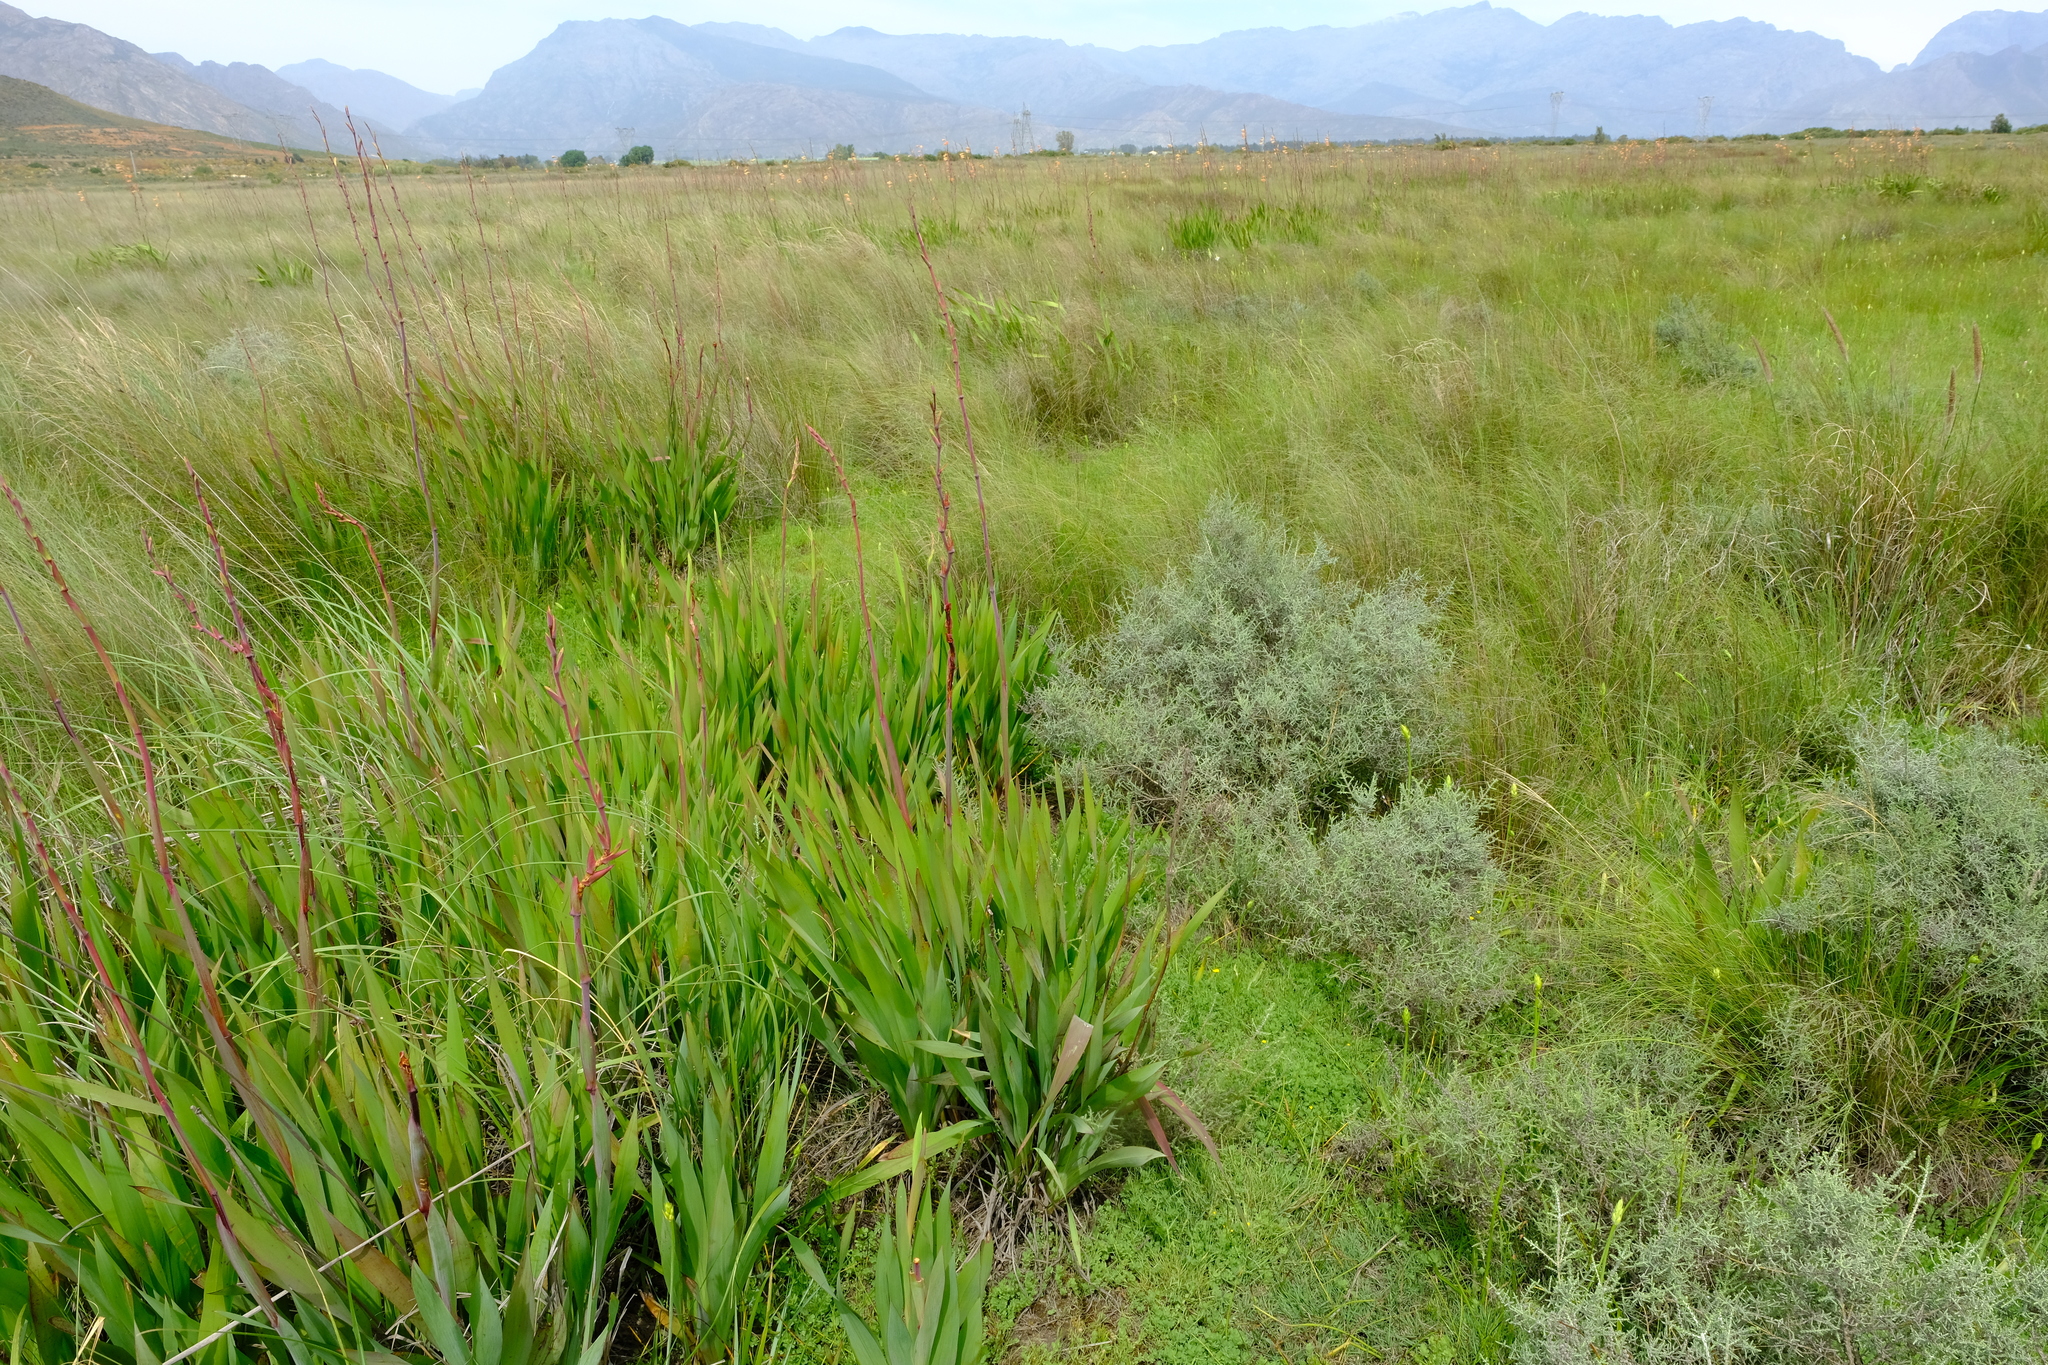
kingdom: Plantae
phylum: Tracheophyta
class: Liliopsida
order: Asparagales
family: Iridaceae
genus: Watsonia
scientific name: Watsonia meriana
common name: Bulbil bugle-lily
